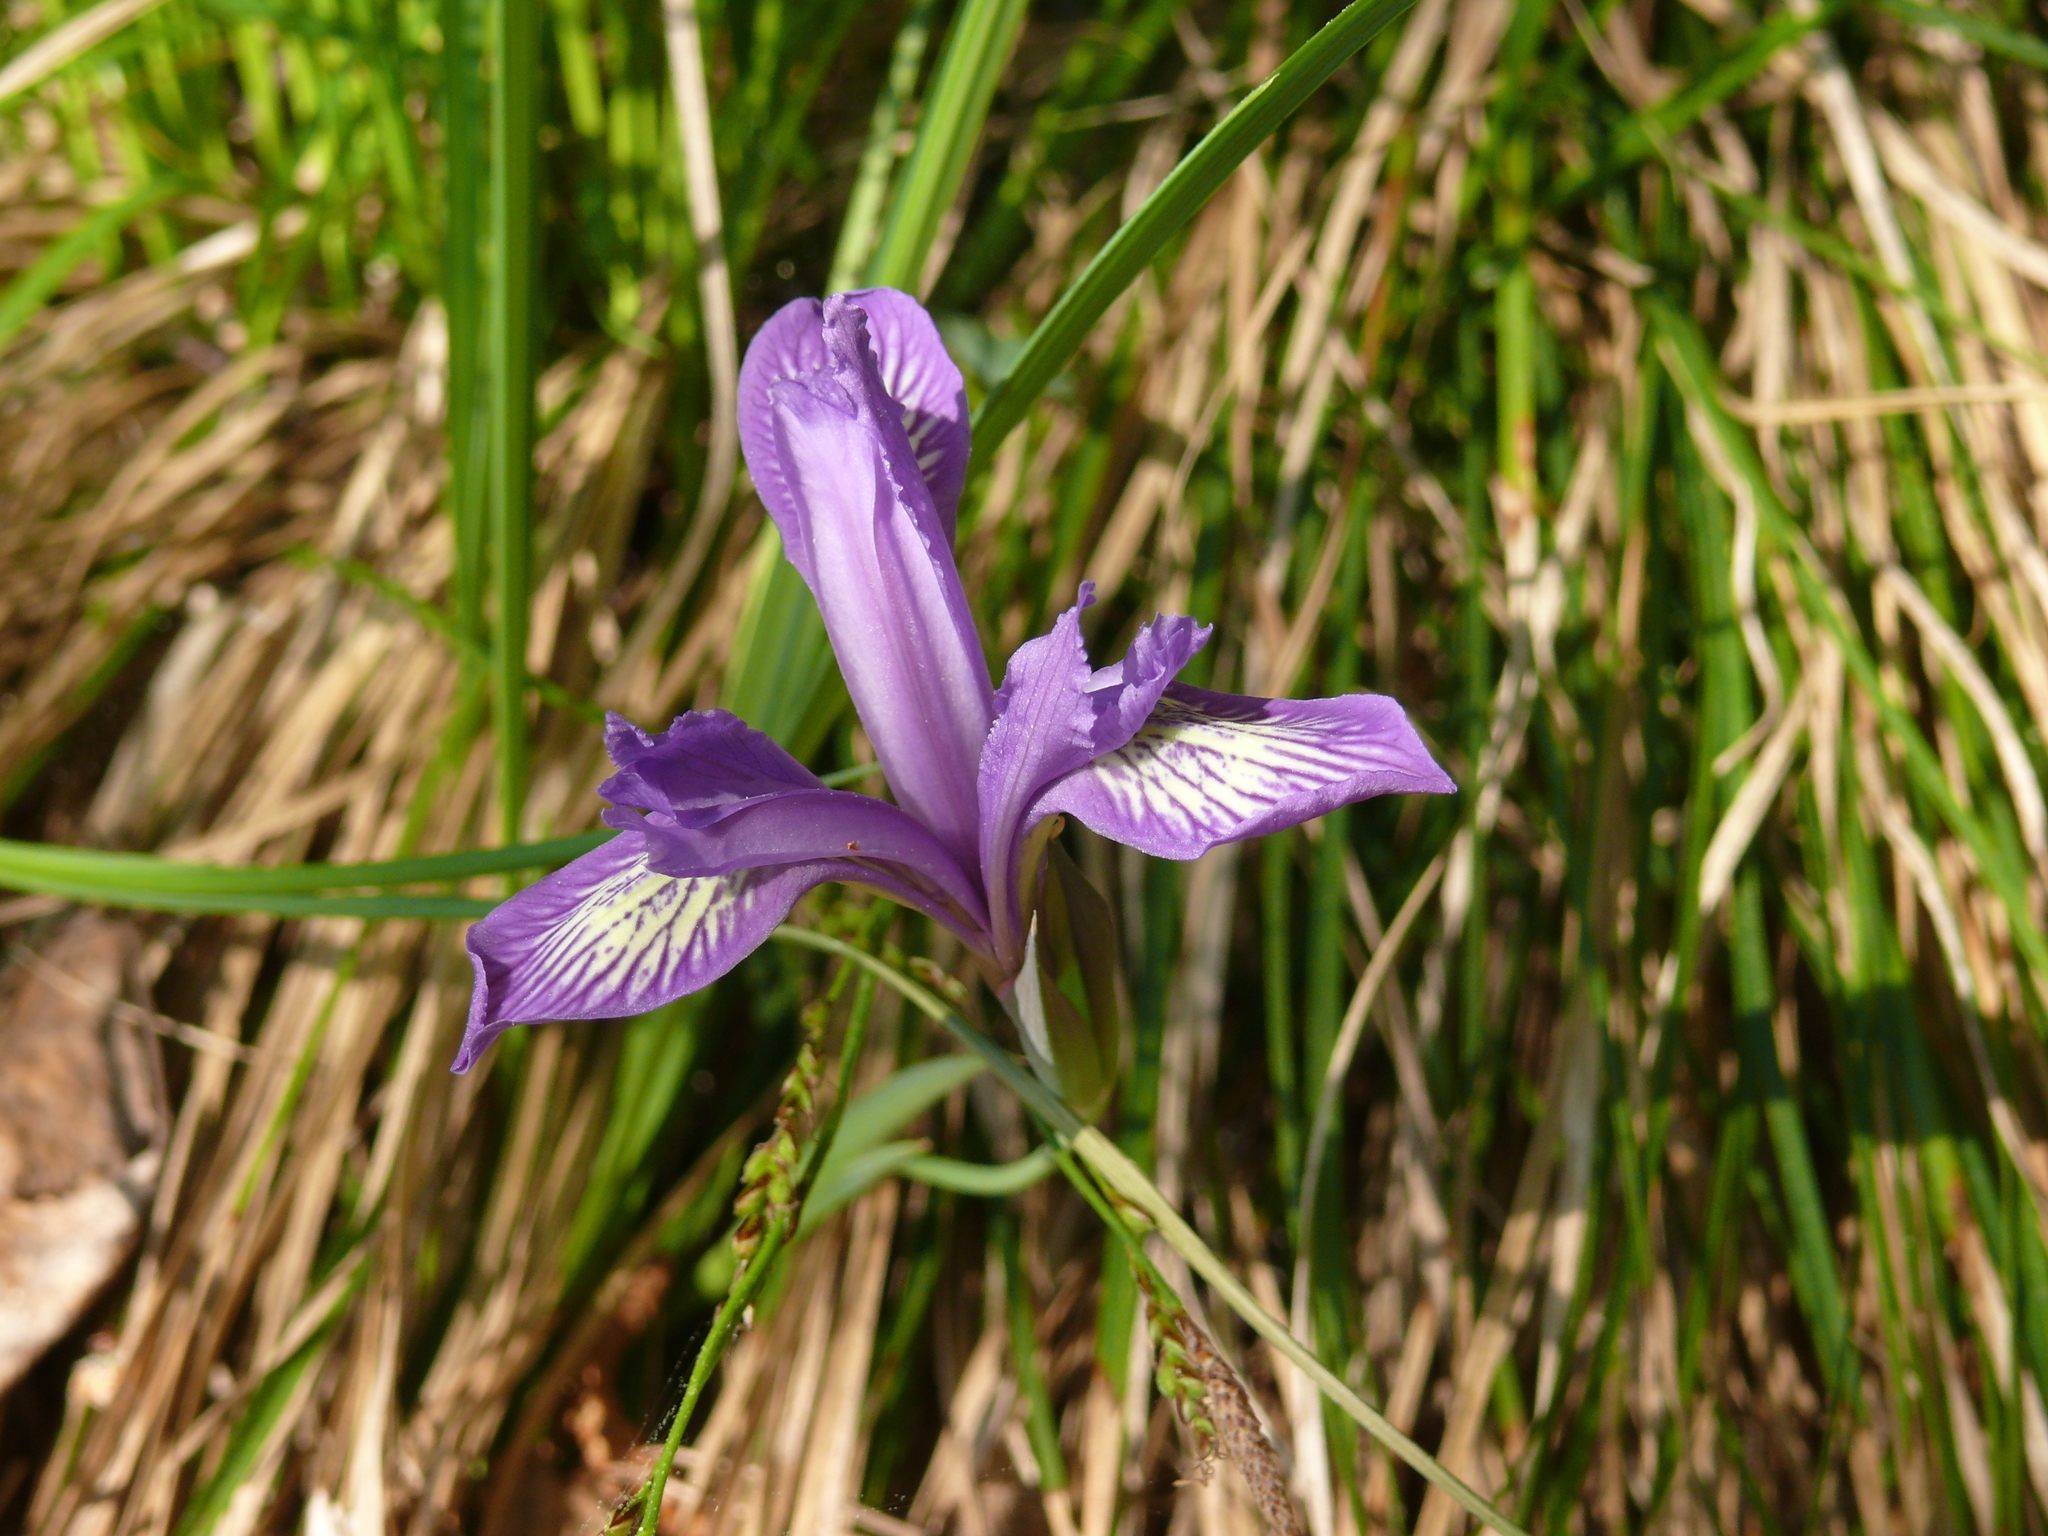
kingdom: Plantae
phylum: Tracheophyta
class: Liliopsida
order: Asparagales
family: Iridaceae
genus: Iris
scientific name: Iris ruthenica
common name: Purple-bract iris
